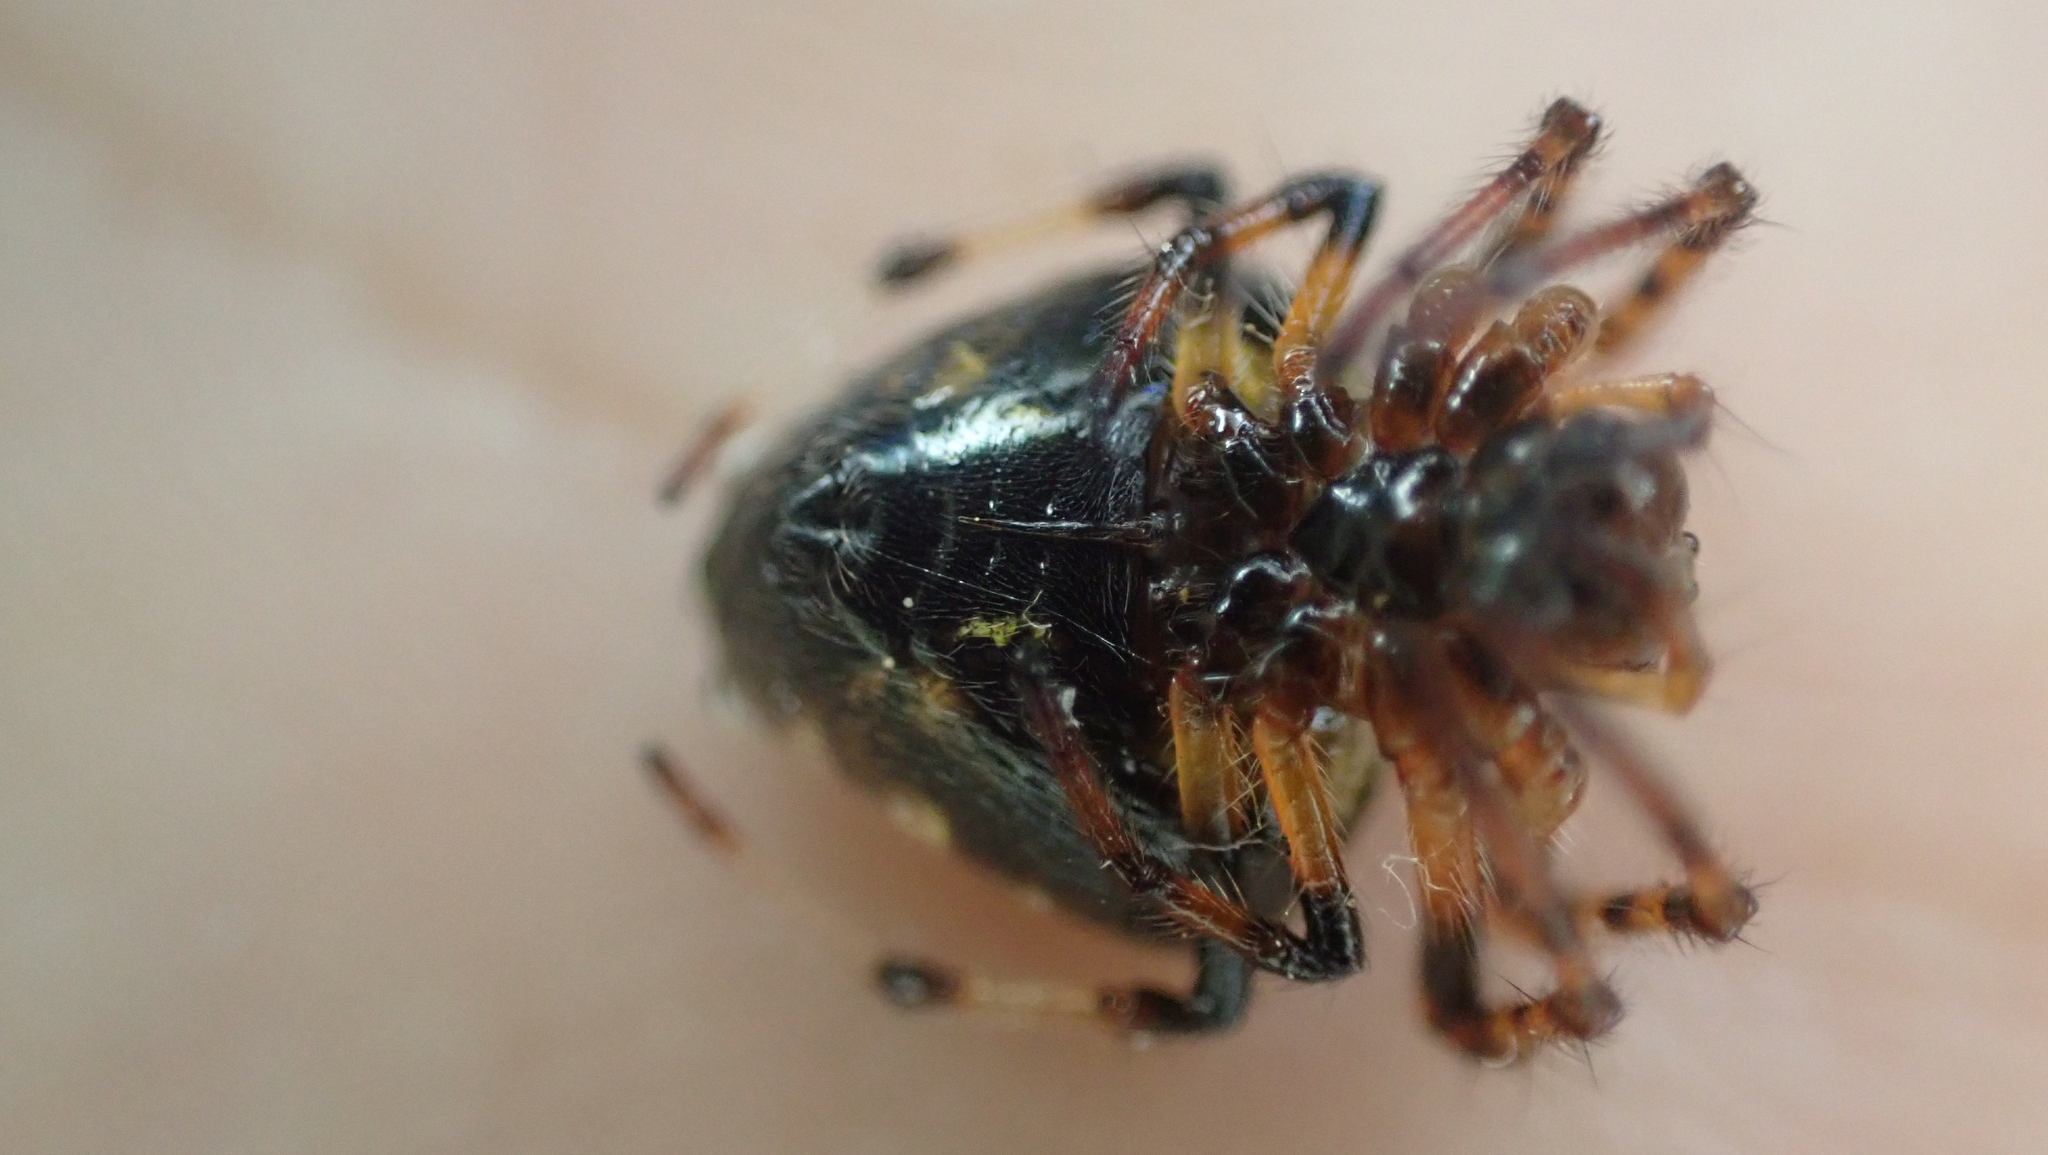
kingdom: Animalia
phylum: Arthropoda
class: Arachnida
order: Araneae
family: Araneidae
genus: Verrucosa
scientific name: Verrucosa arenata
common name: Orb weavers
